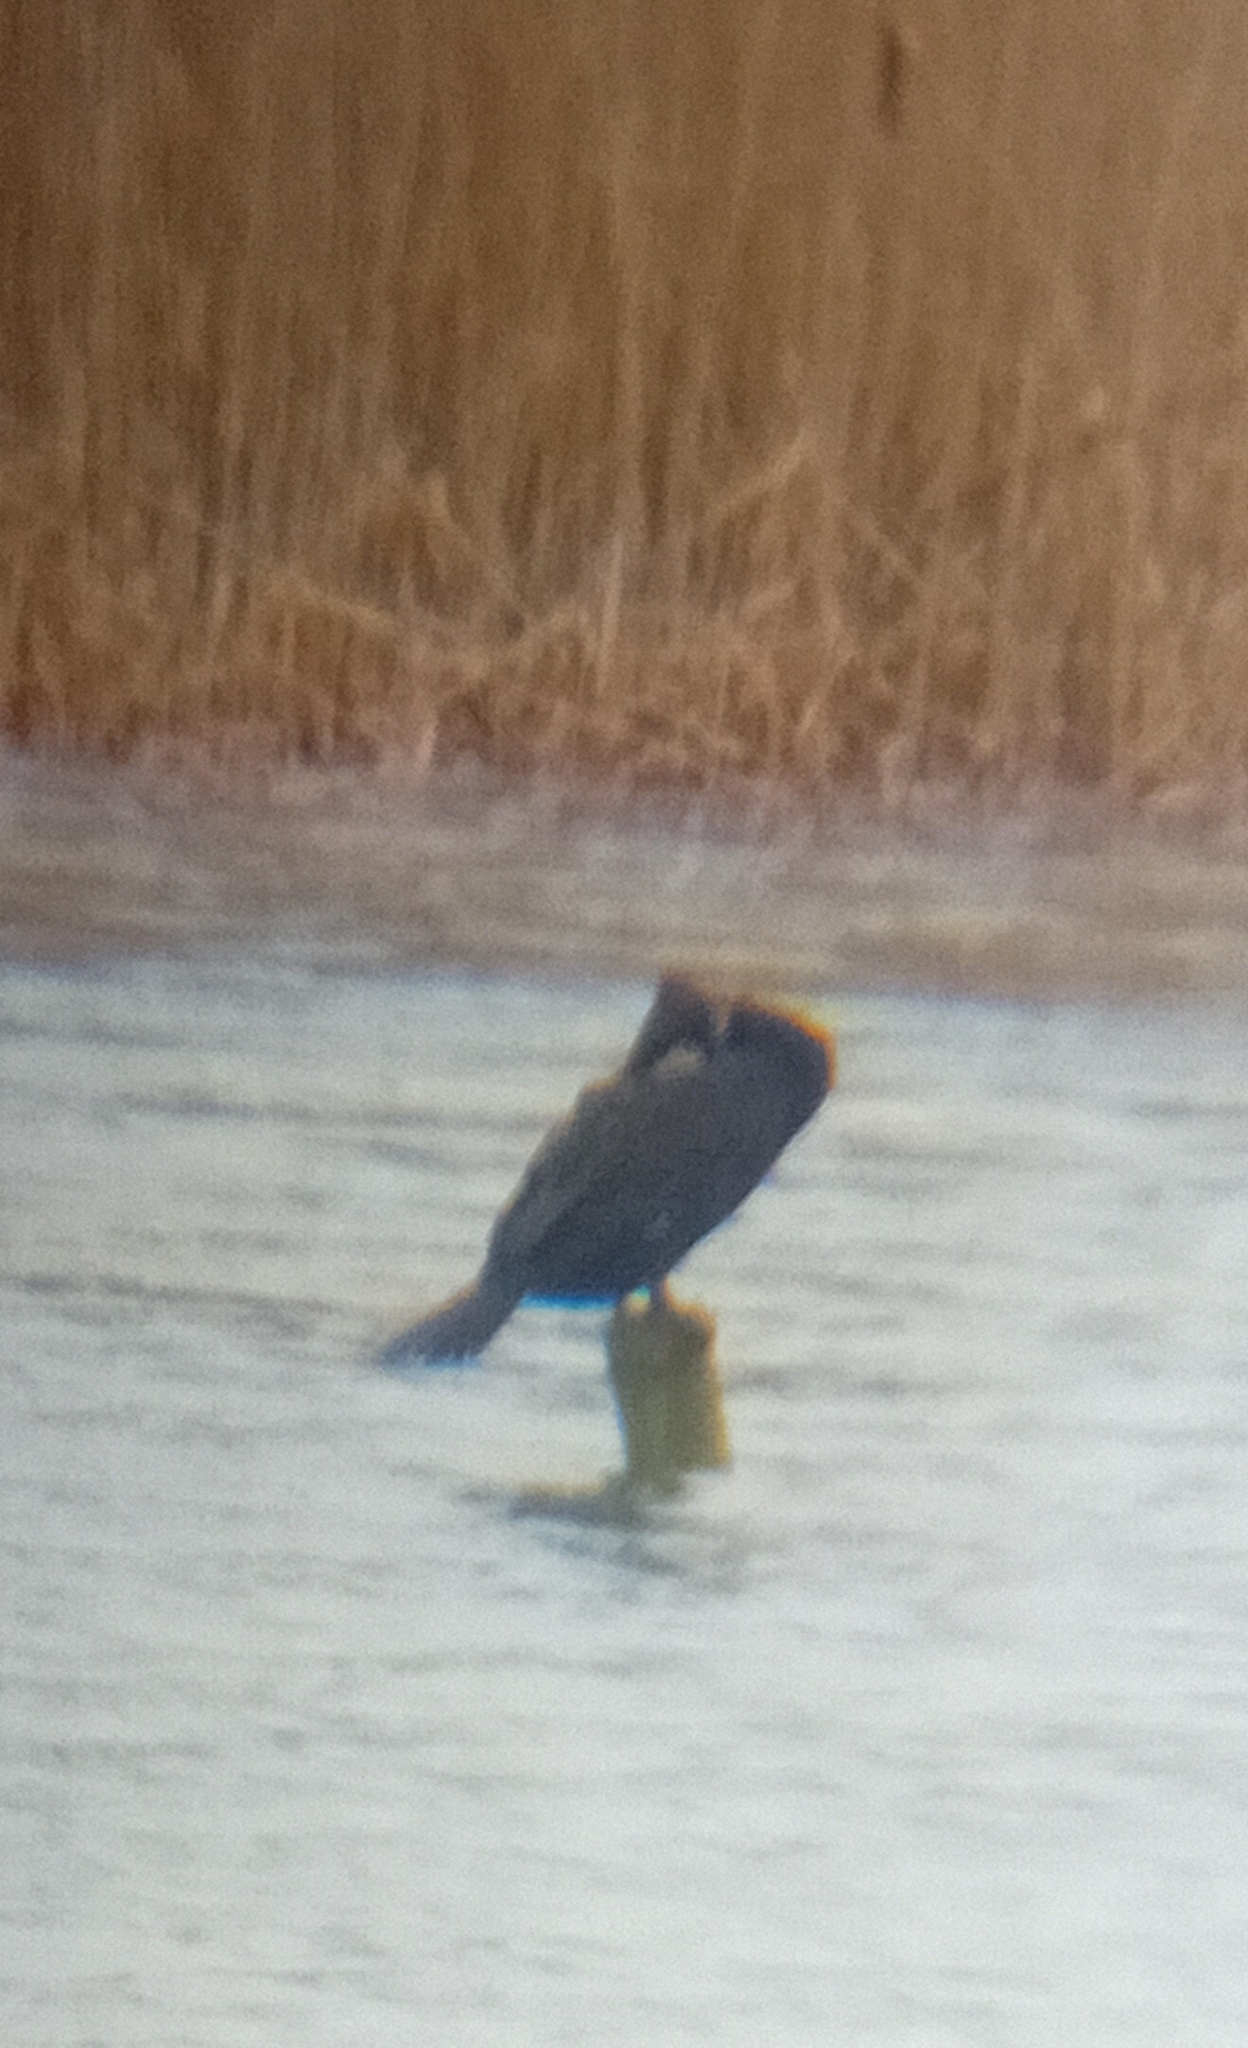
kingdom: Animalia
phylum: Chordata
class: Aves
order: Suliformes
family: Phalacrocoracidae
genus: Phalacrocorax
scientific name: Phalacrocorax carbo
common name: Great cormorant
